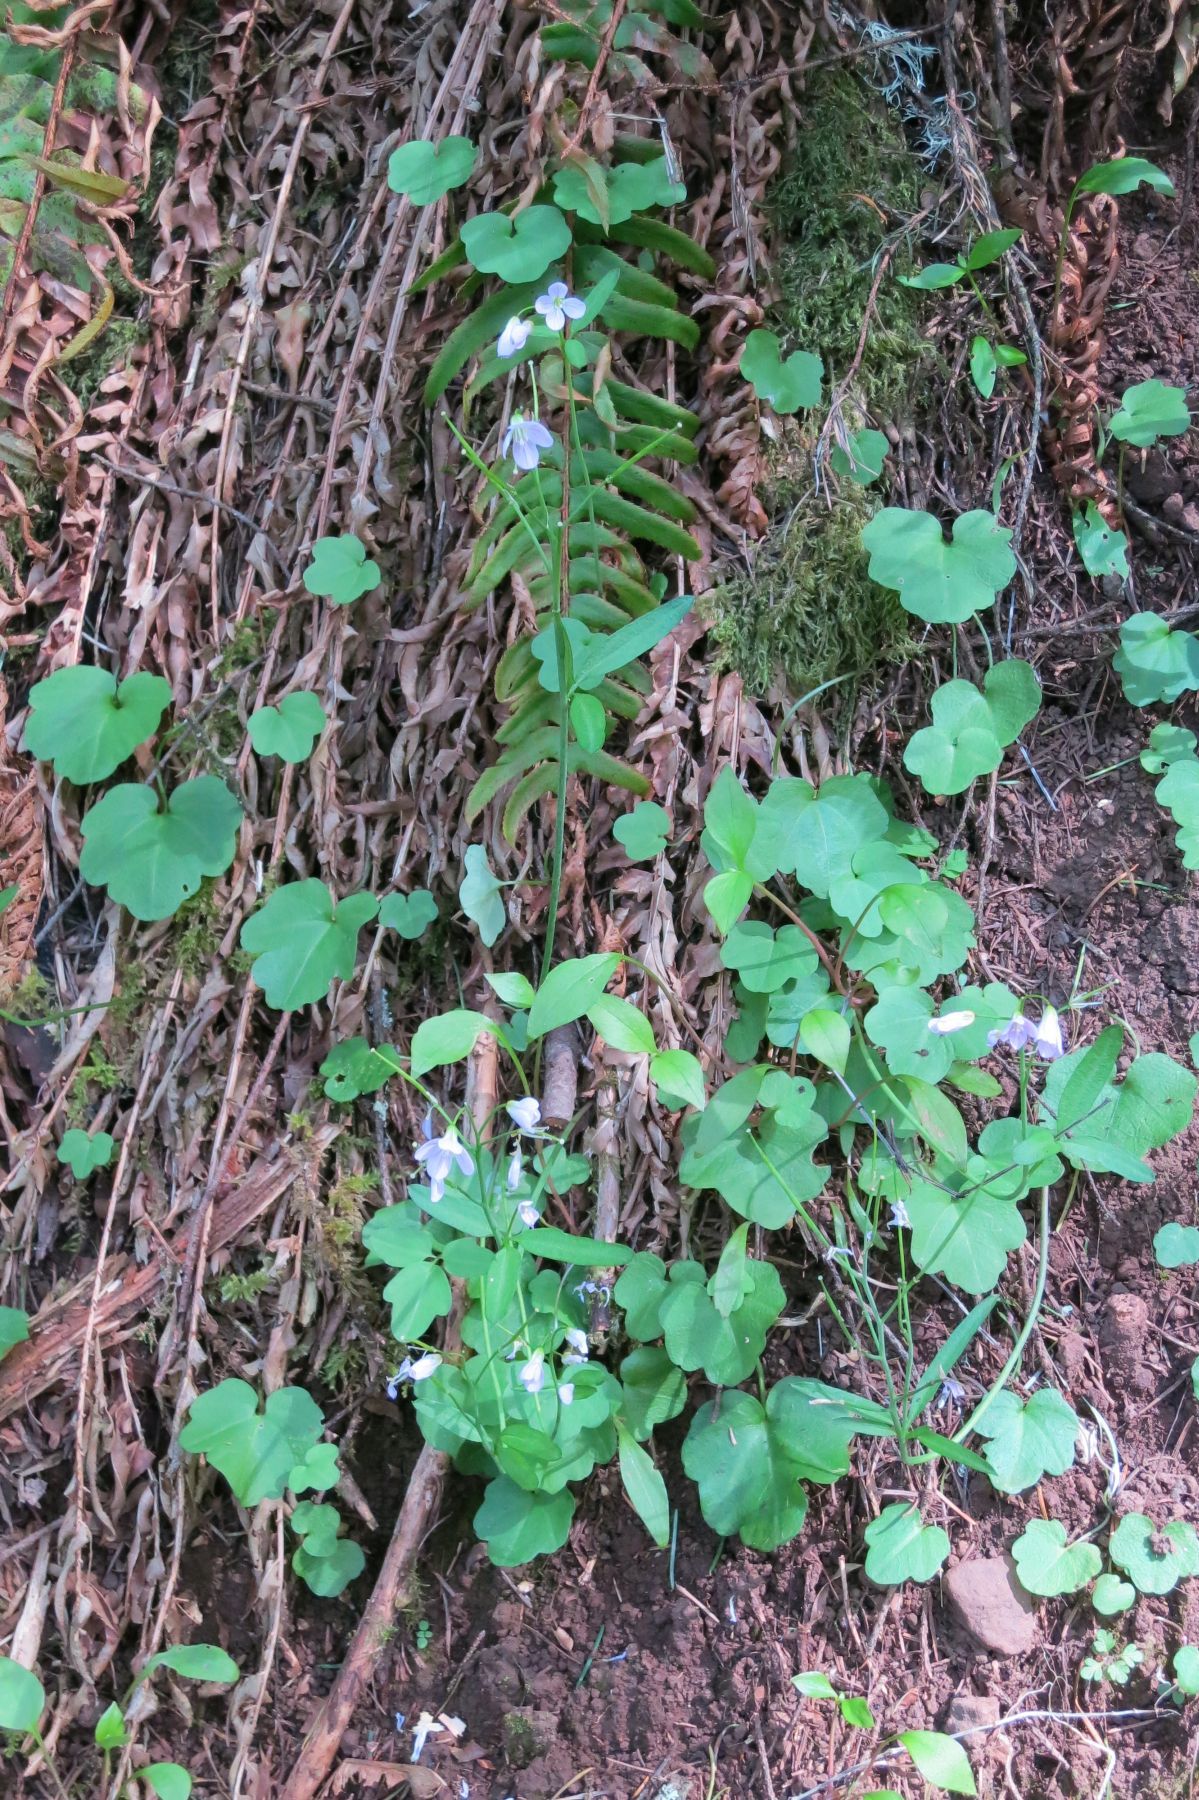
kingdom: Plantae
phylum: Tracheophyta
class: Magnoliopsida
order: Brassicales
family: Brassicaceae
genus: Cardamine
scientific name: Cardamine nuttallii
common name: Nuttall's toothwort
